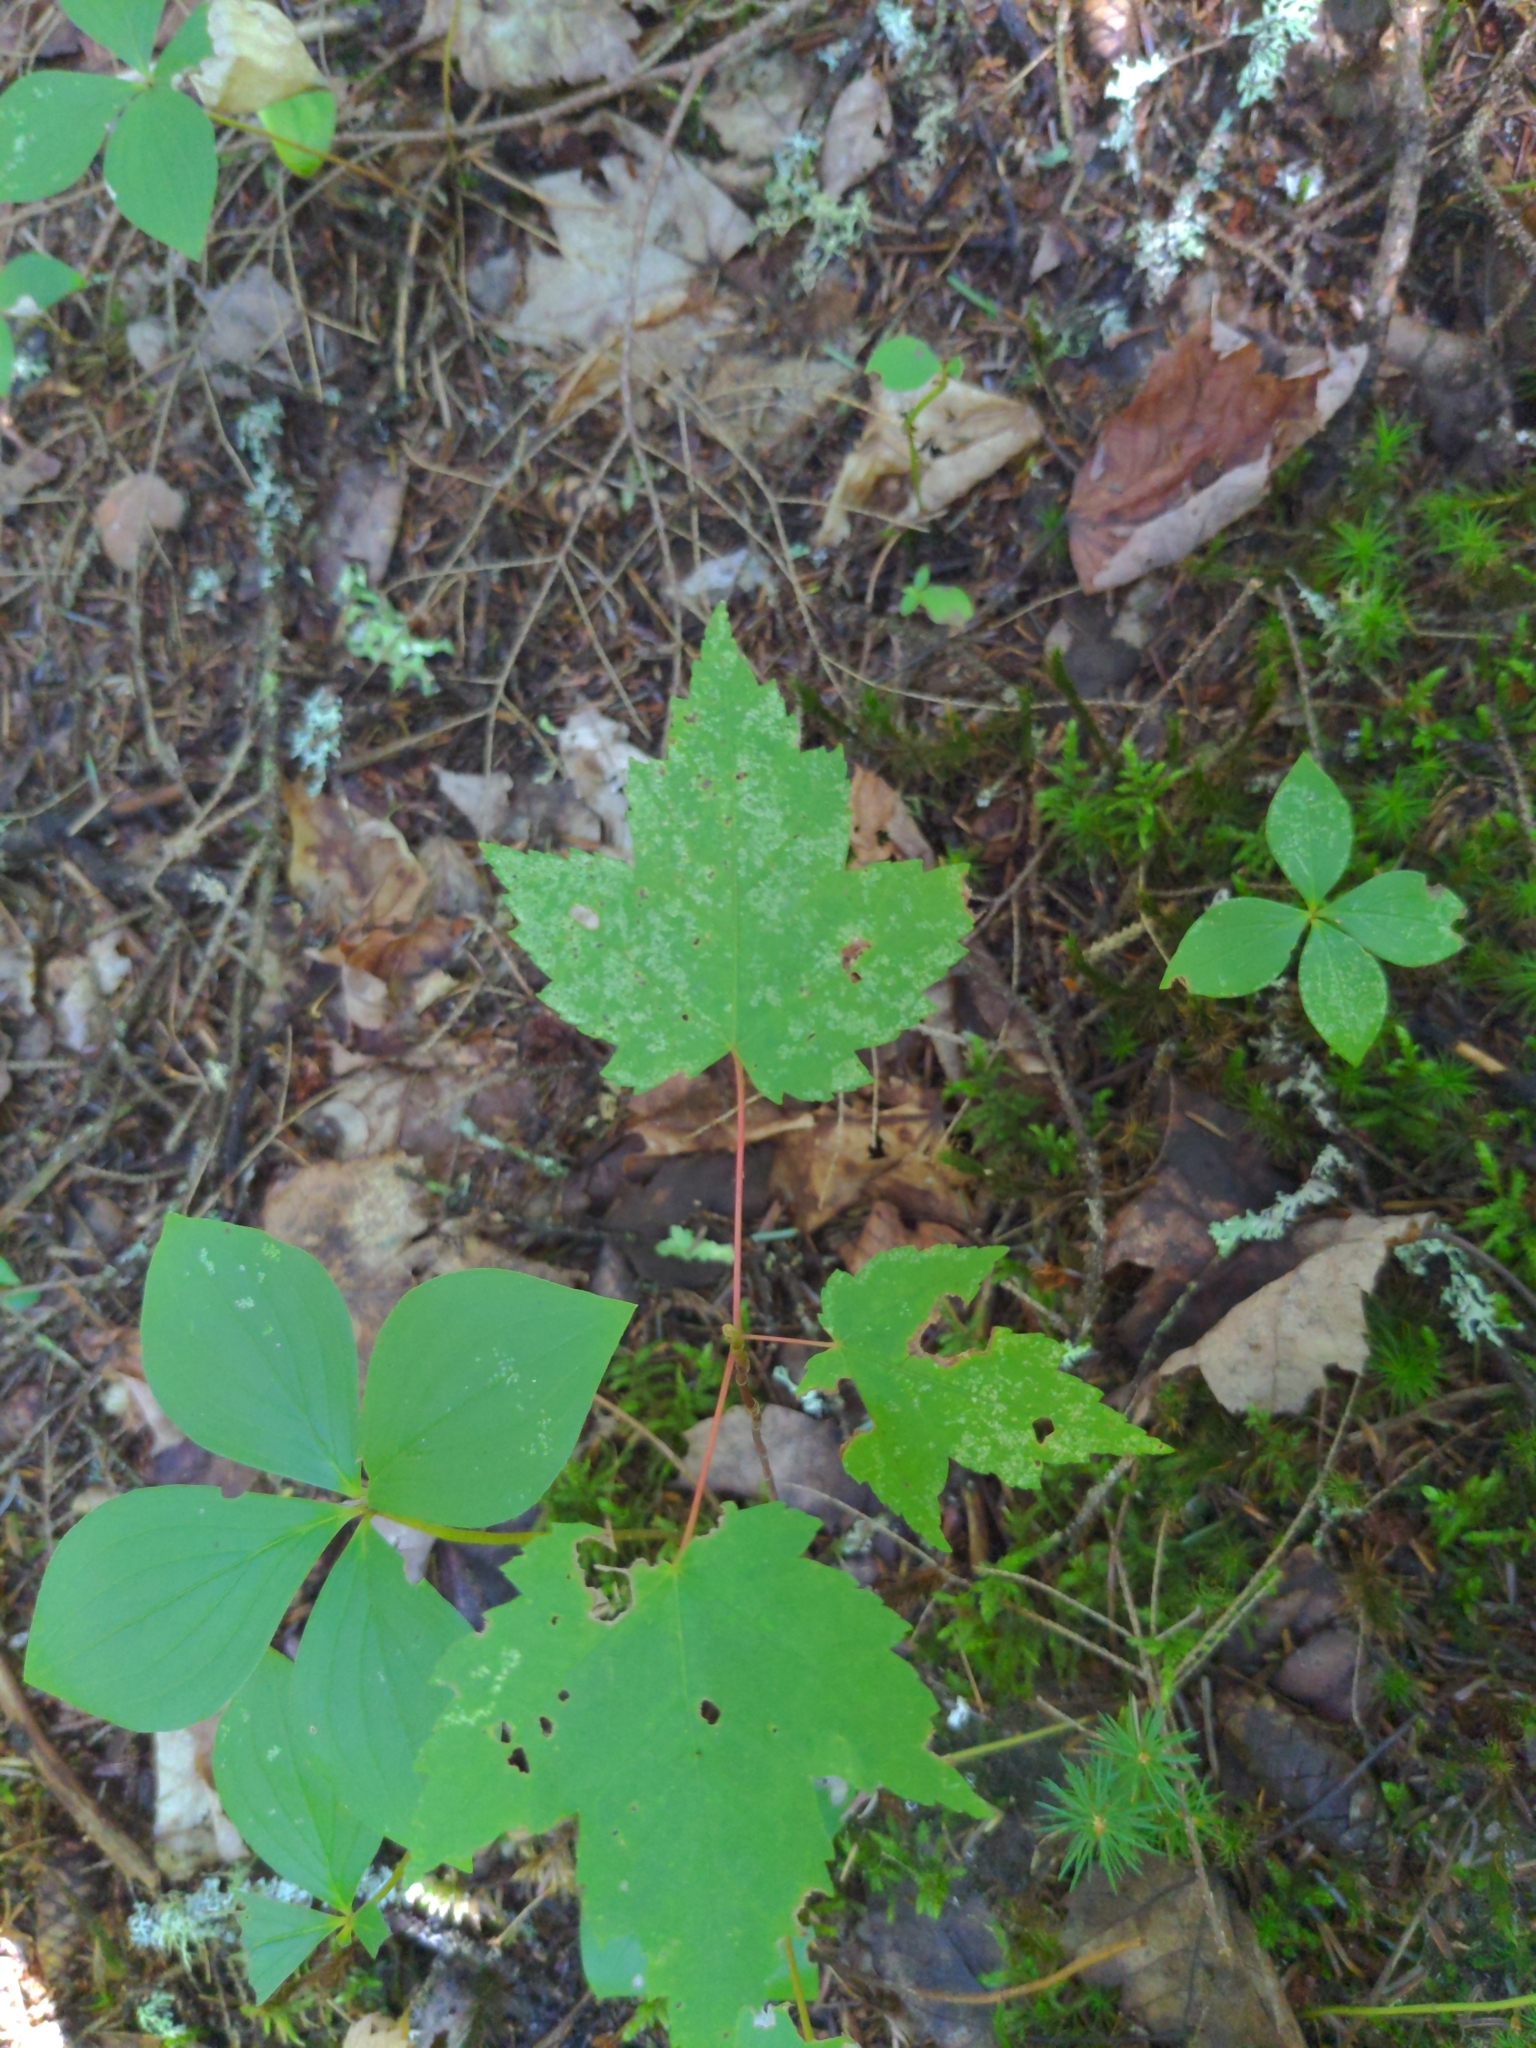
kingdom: Plantae
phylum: Tracheophyta
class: Magnoliopsida
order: Sapindales
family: Sapindaceae
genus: Acer
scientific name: Acer rubrum
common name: Red maple
